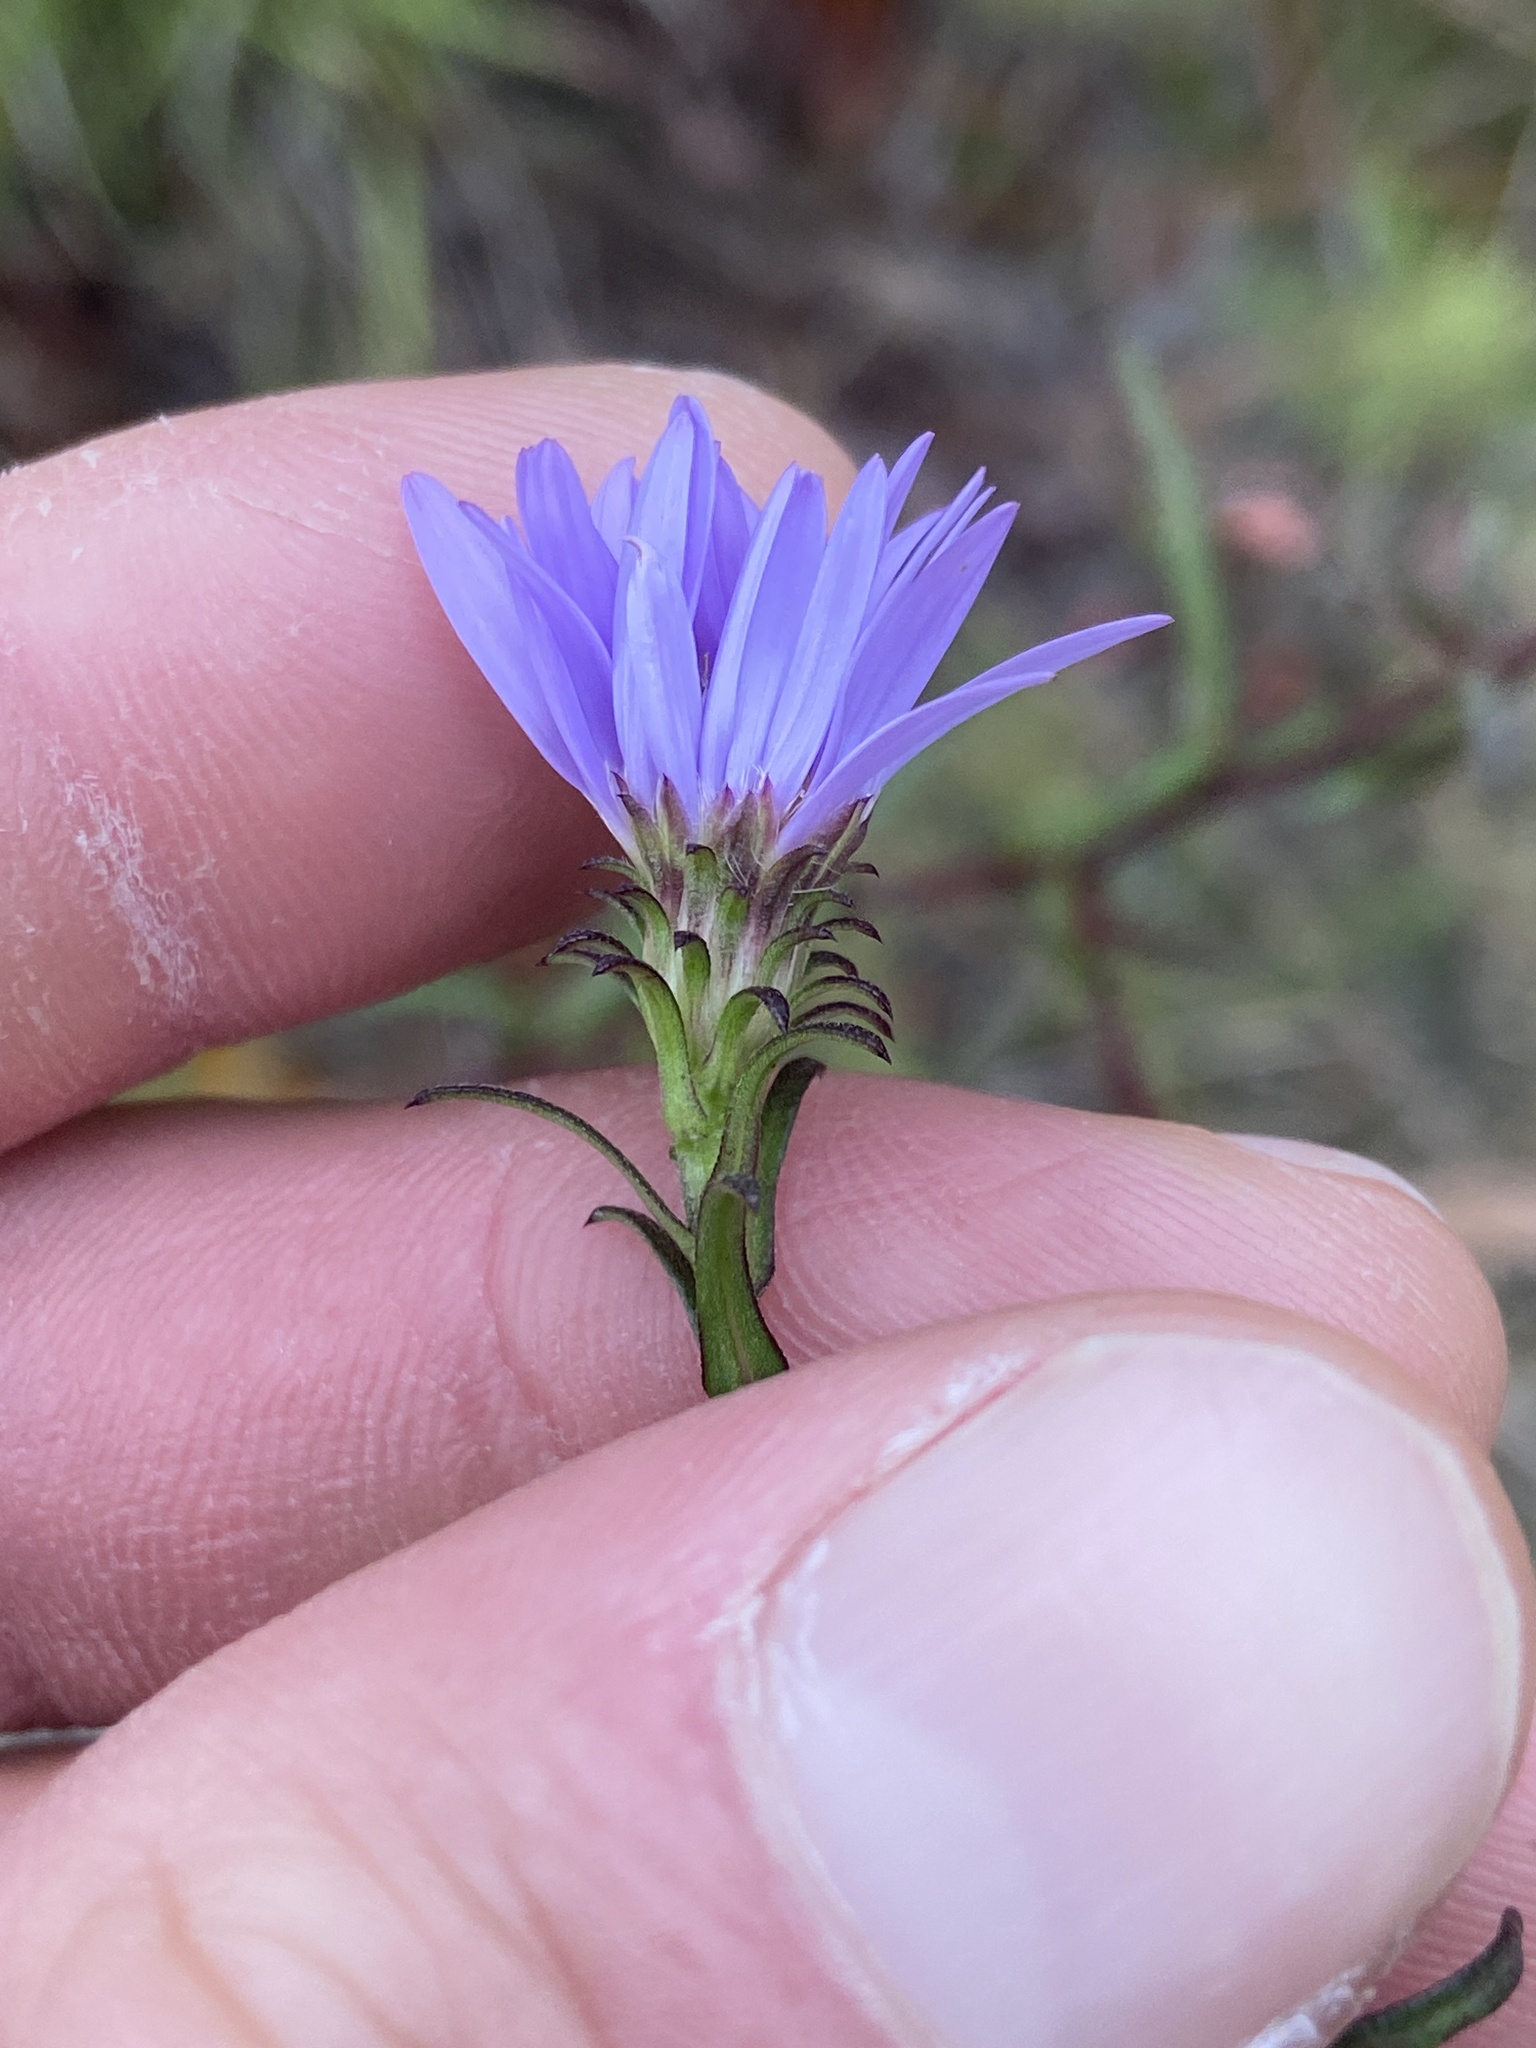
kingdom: Plantae
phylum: Tracheophyta
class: Magnoliopsida
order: Asterales
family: Asteraceae
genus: Eurybia
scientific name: Eurybia paludosa
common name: Southern swamp aster
